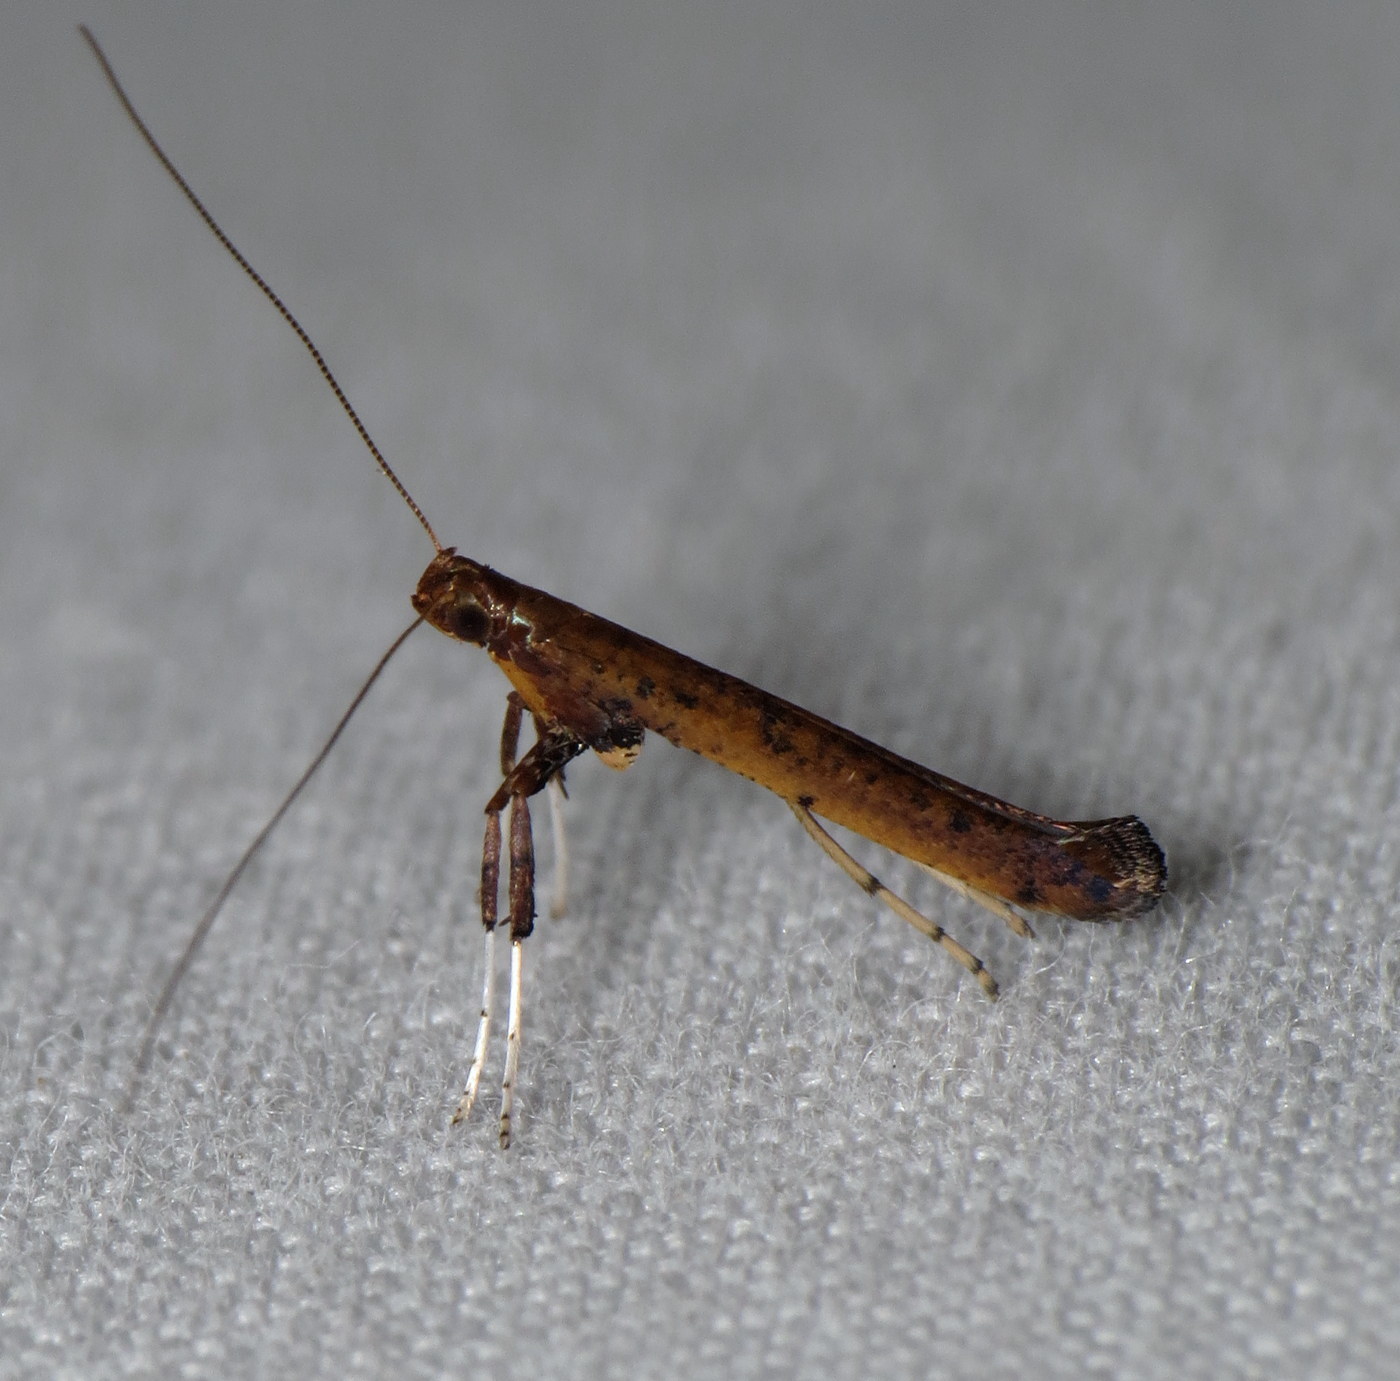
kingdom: Animalia
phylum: Arthropoda
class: Insecta
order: Lepidoptera
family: Gracillariidae
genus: Caloptilia
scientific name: Caloptilia sassafrasella
